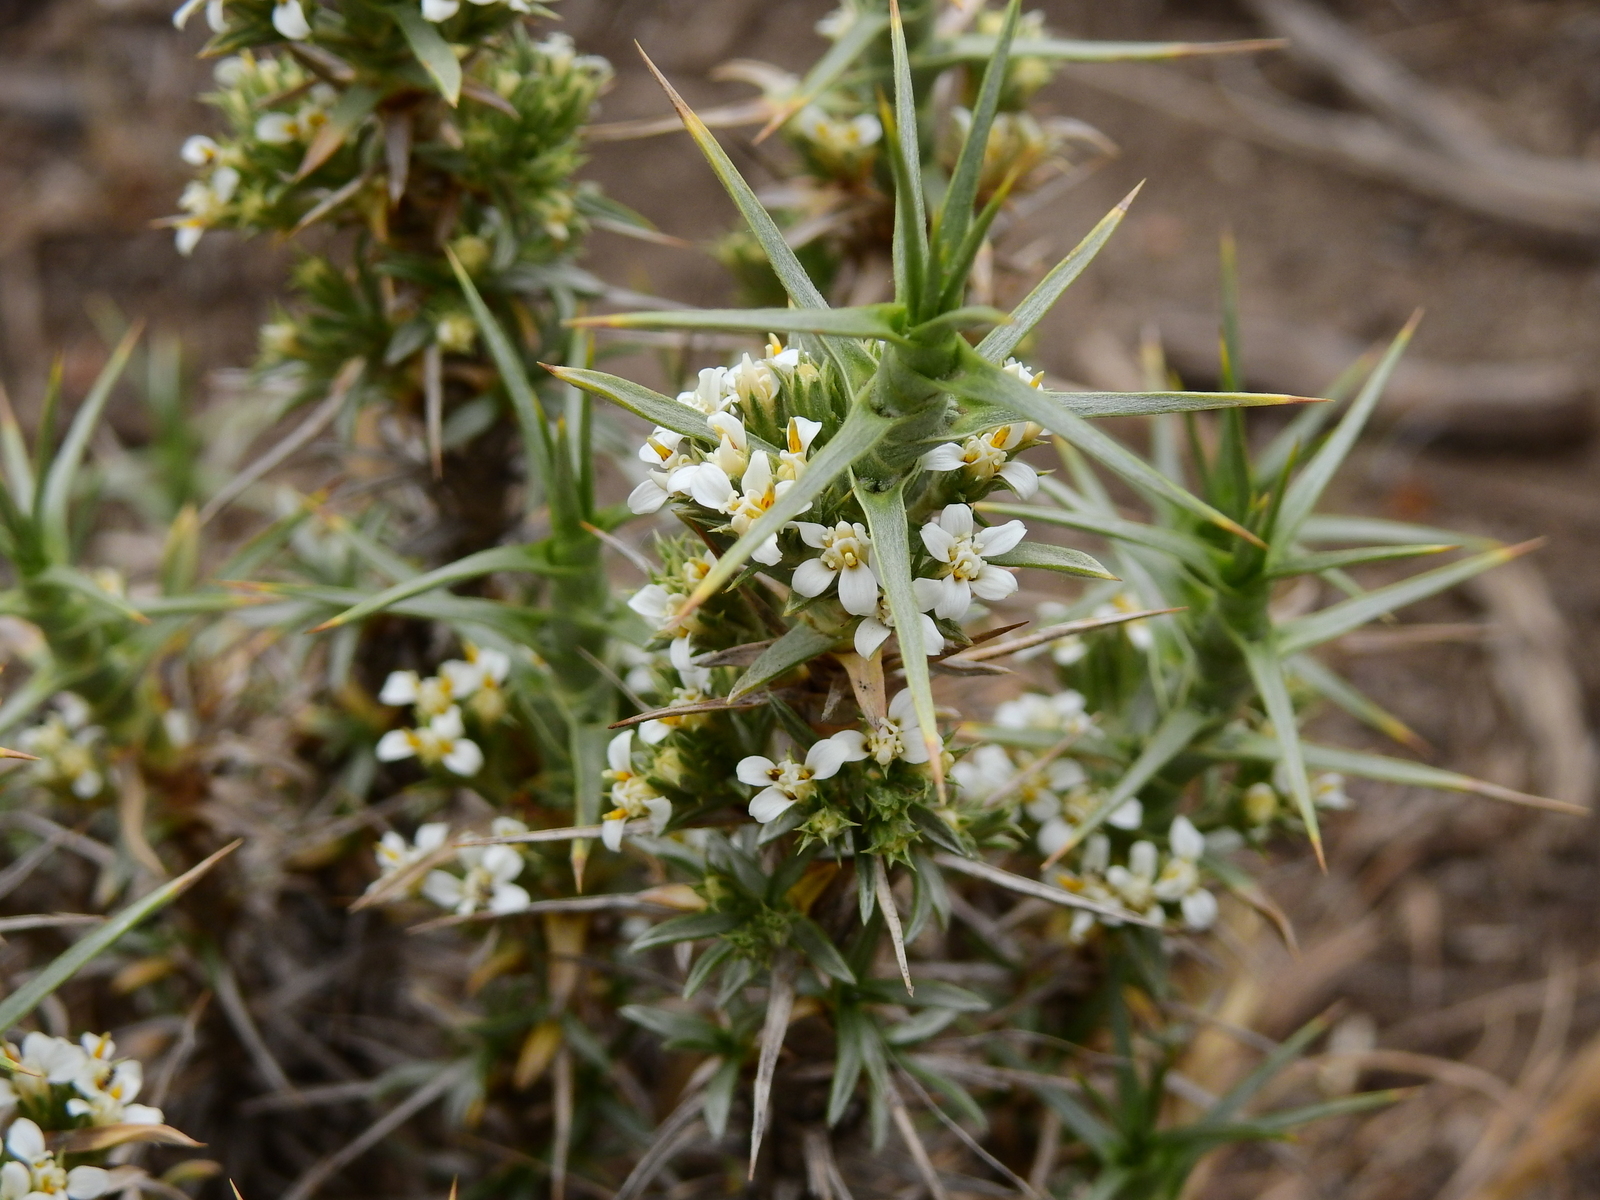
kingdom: Plantae
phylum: Tracheophyta
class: Magnoliopsida
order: Asterales
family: Asteraceae
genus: Nassauvia
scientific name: Nassauvia axillaris
